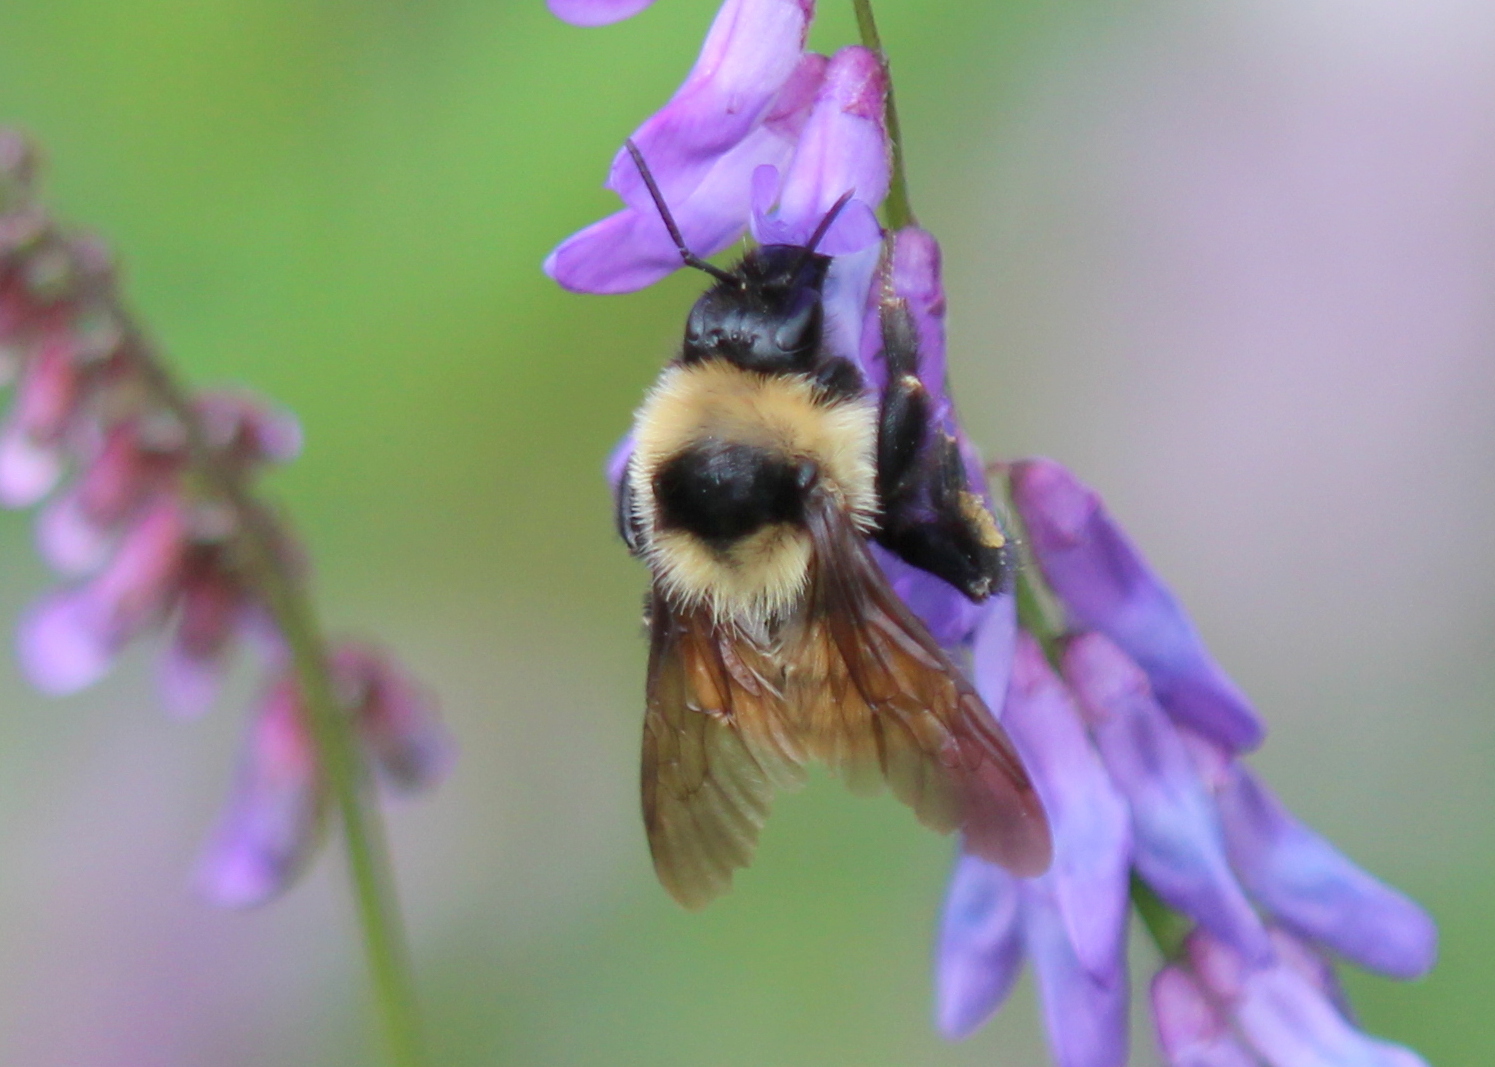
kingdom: Animalia
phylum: Arthropoda
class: Insecta
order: Hymenoptera
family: Apidae
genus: Bombus
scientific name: Bombus fervidus
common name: Yellow bumble bee
